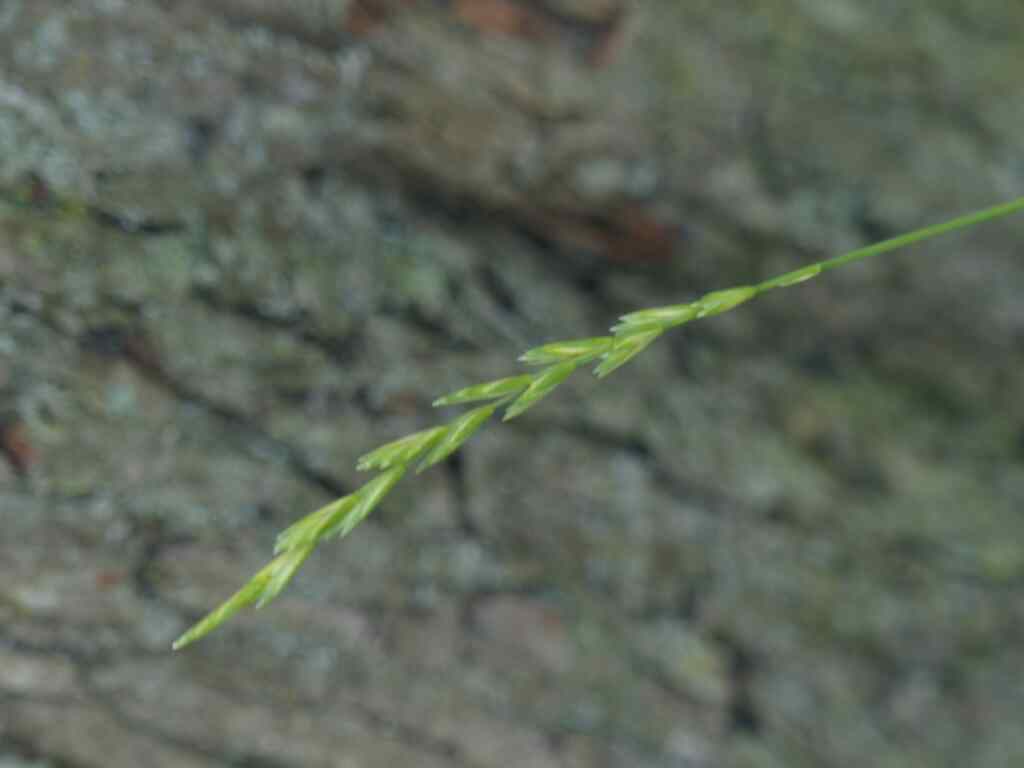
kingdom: Plantae
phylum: Tracheophyta
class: Liliopsida
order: Poales
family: Poaceae
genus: Lolium
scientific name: Lolium perenne
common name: Perennial ryegrass
